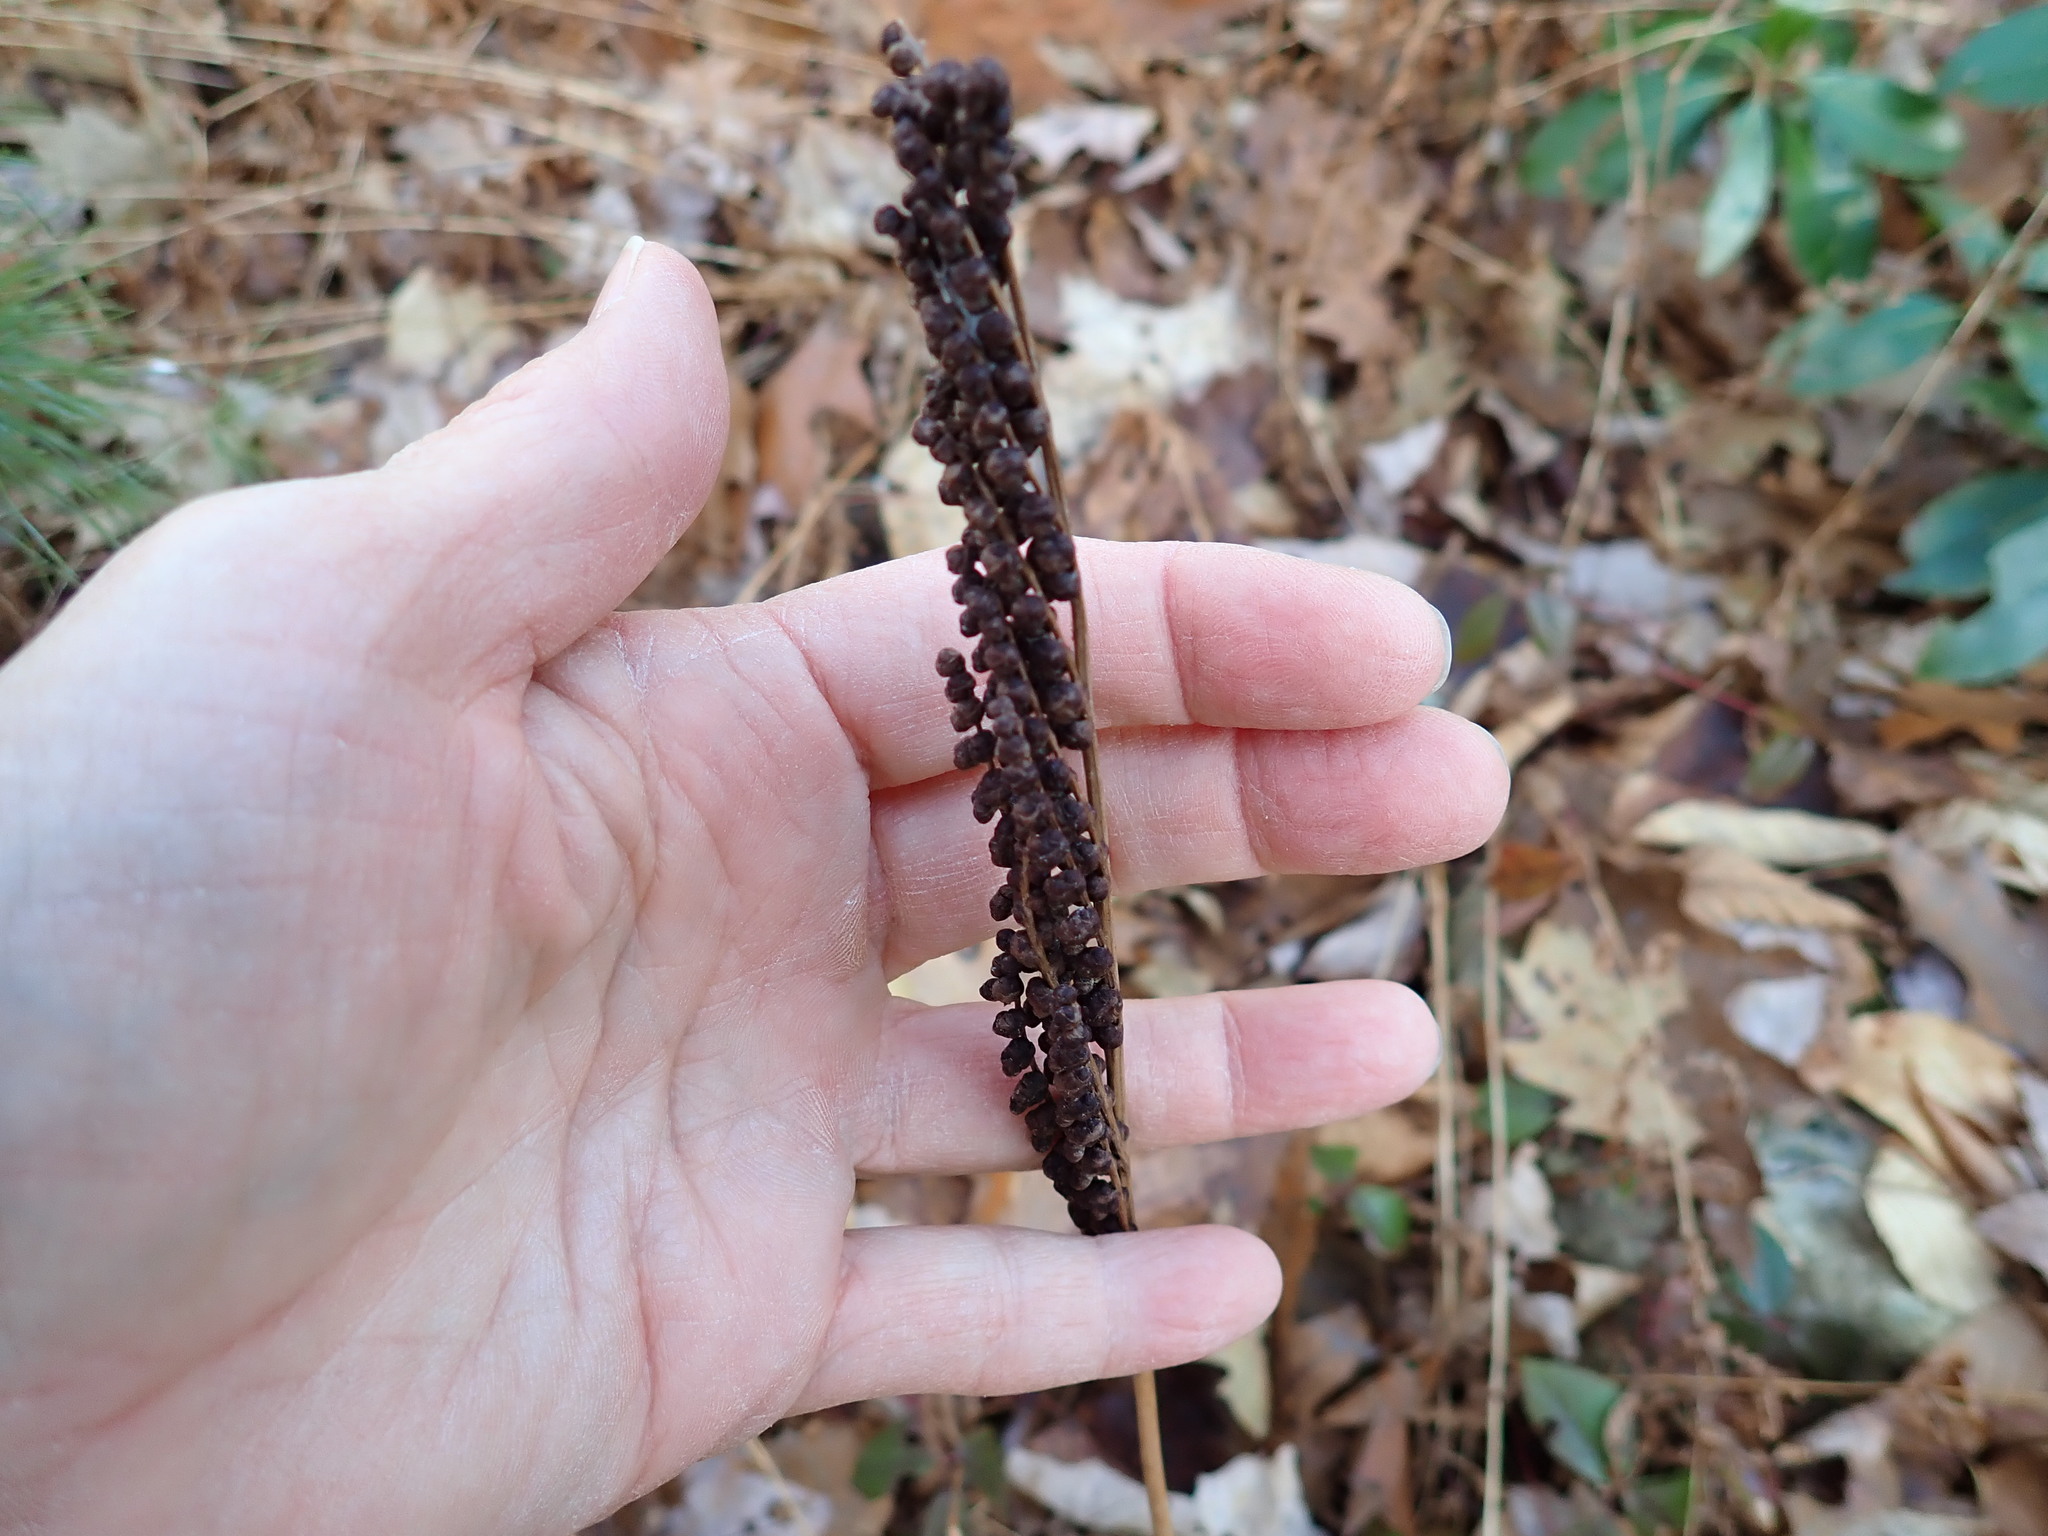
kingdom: Plantae
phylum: Tracheophyta
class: Polypodiopsida
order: Polypodiales
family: Onocleaceae
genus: Onoclea
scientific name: Onoclea sensibilis
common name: Sensitive fern
